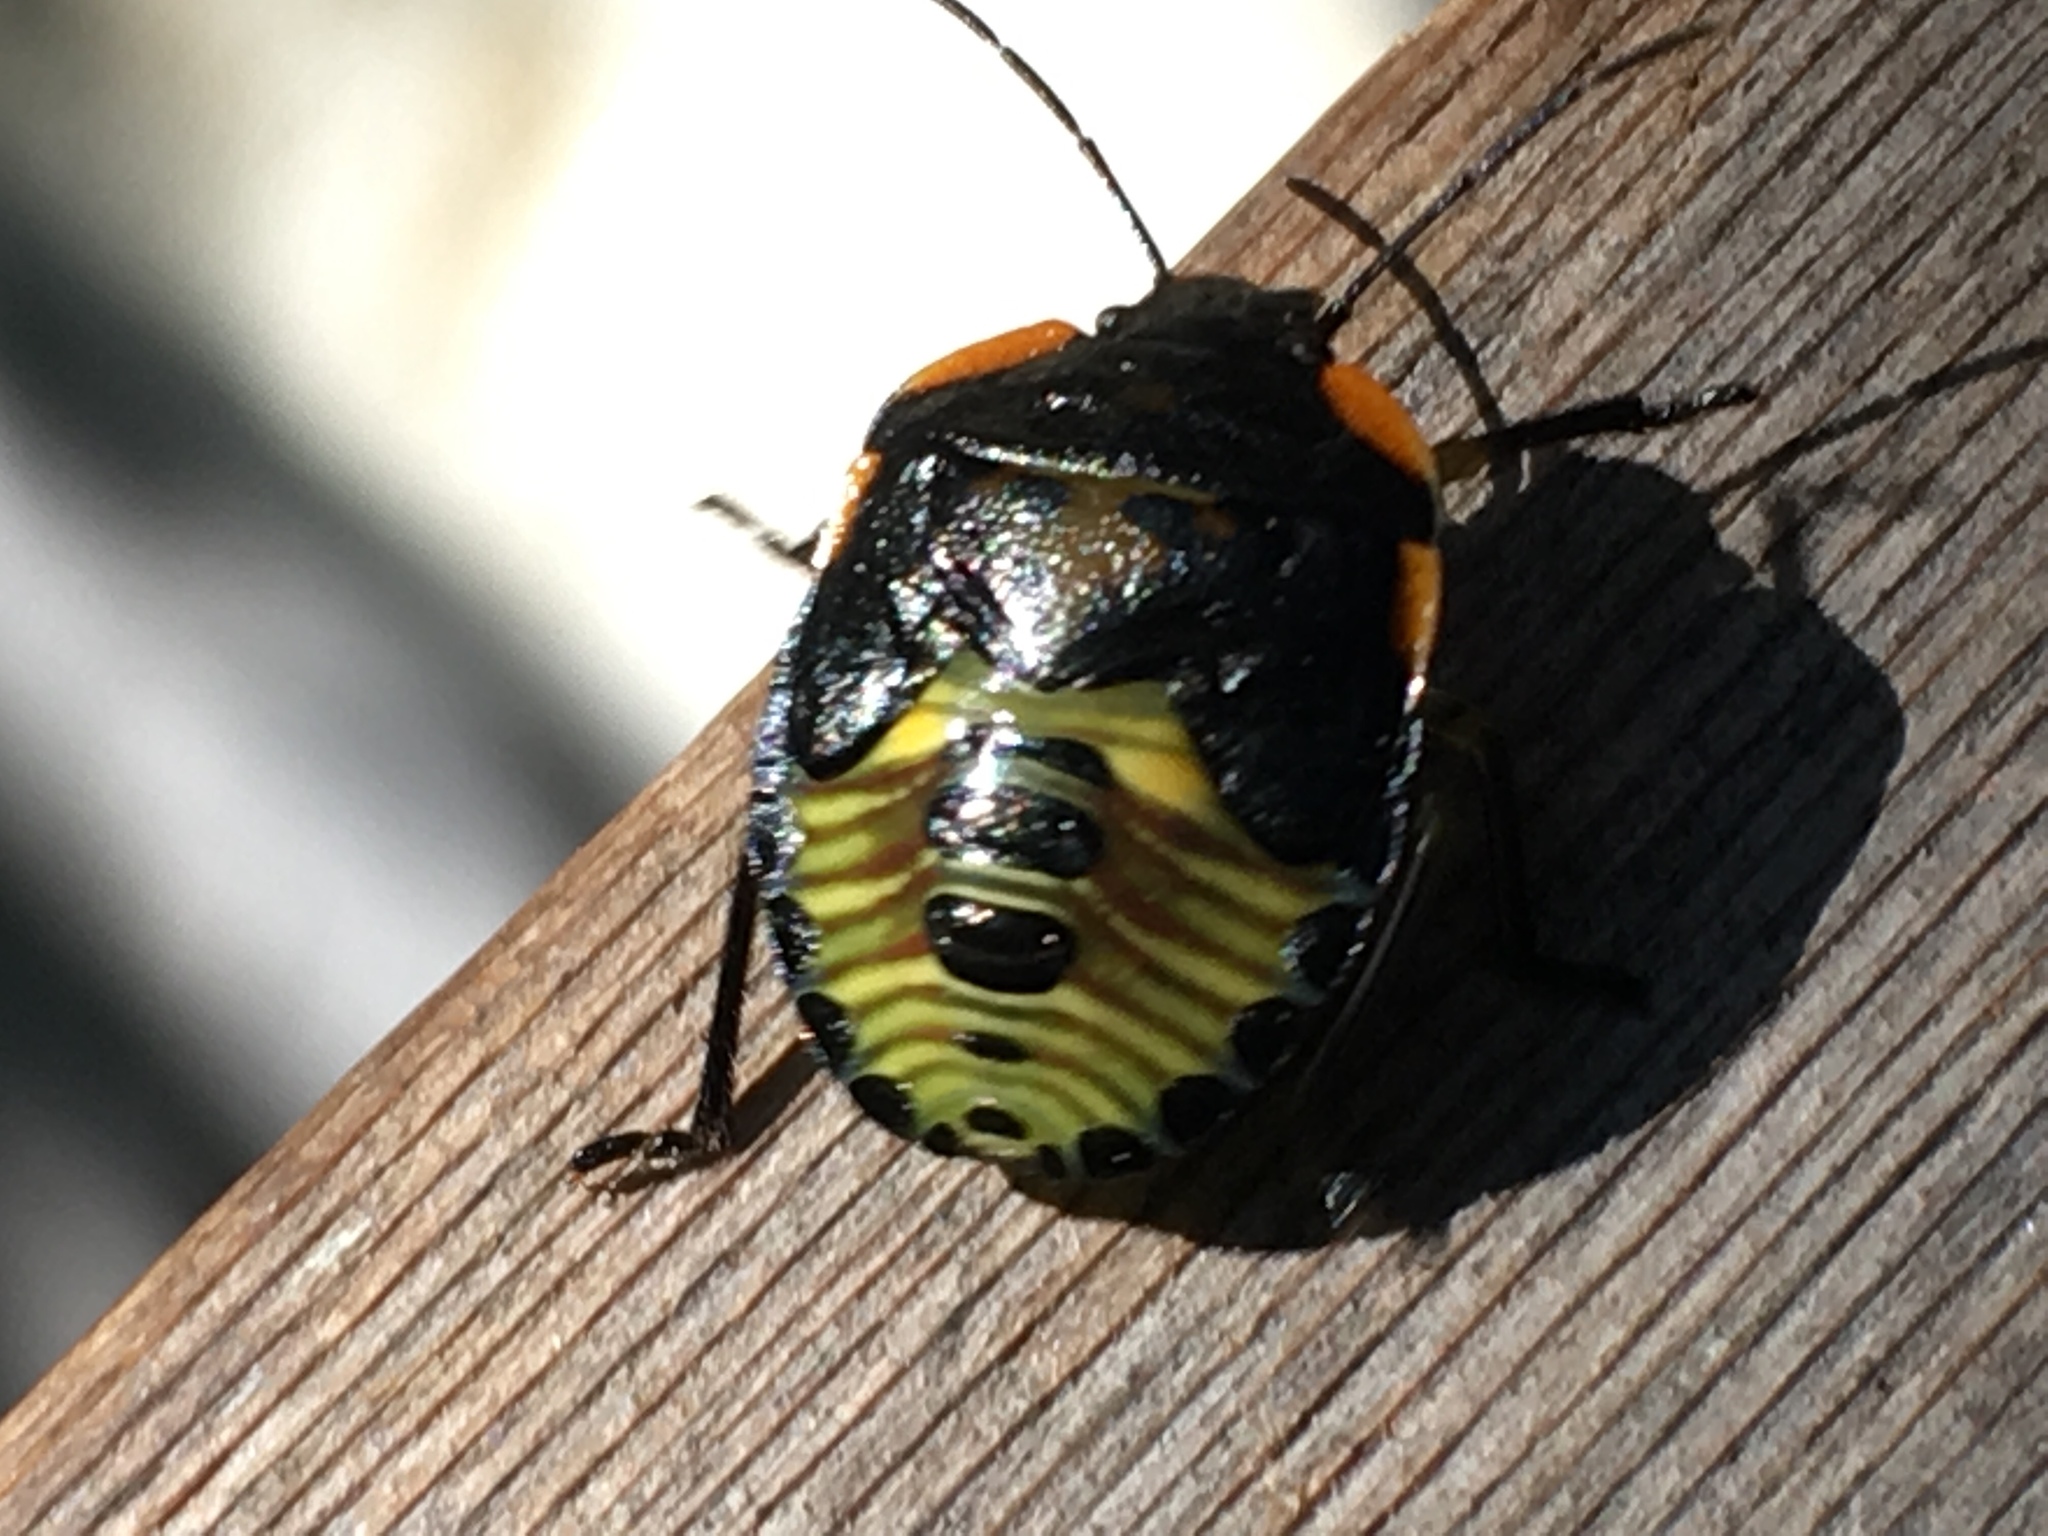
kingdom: Animalia
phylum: Arthropoda
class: Insecta
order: Hemiptera
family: Pentatomidae
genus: Chinavia
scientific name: Chinavia hilaris
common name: Green stink bug
